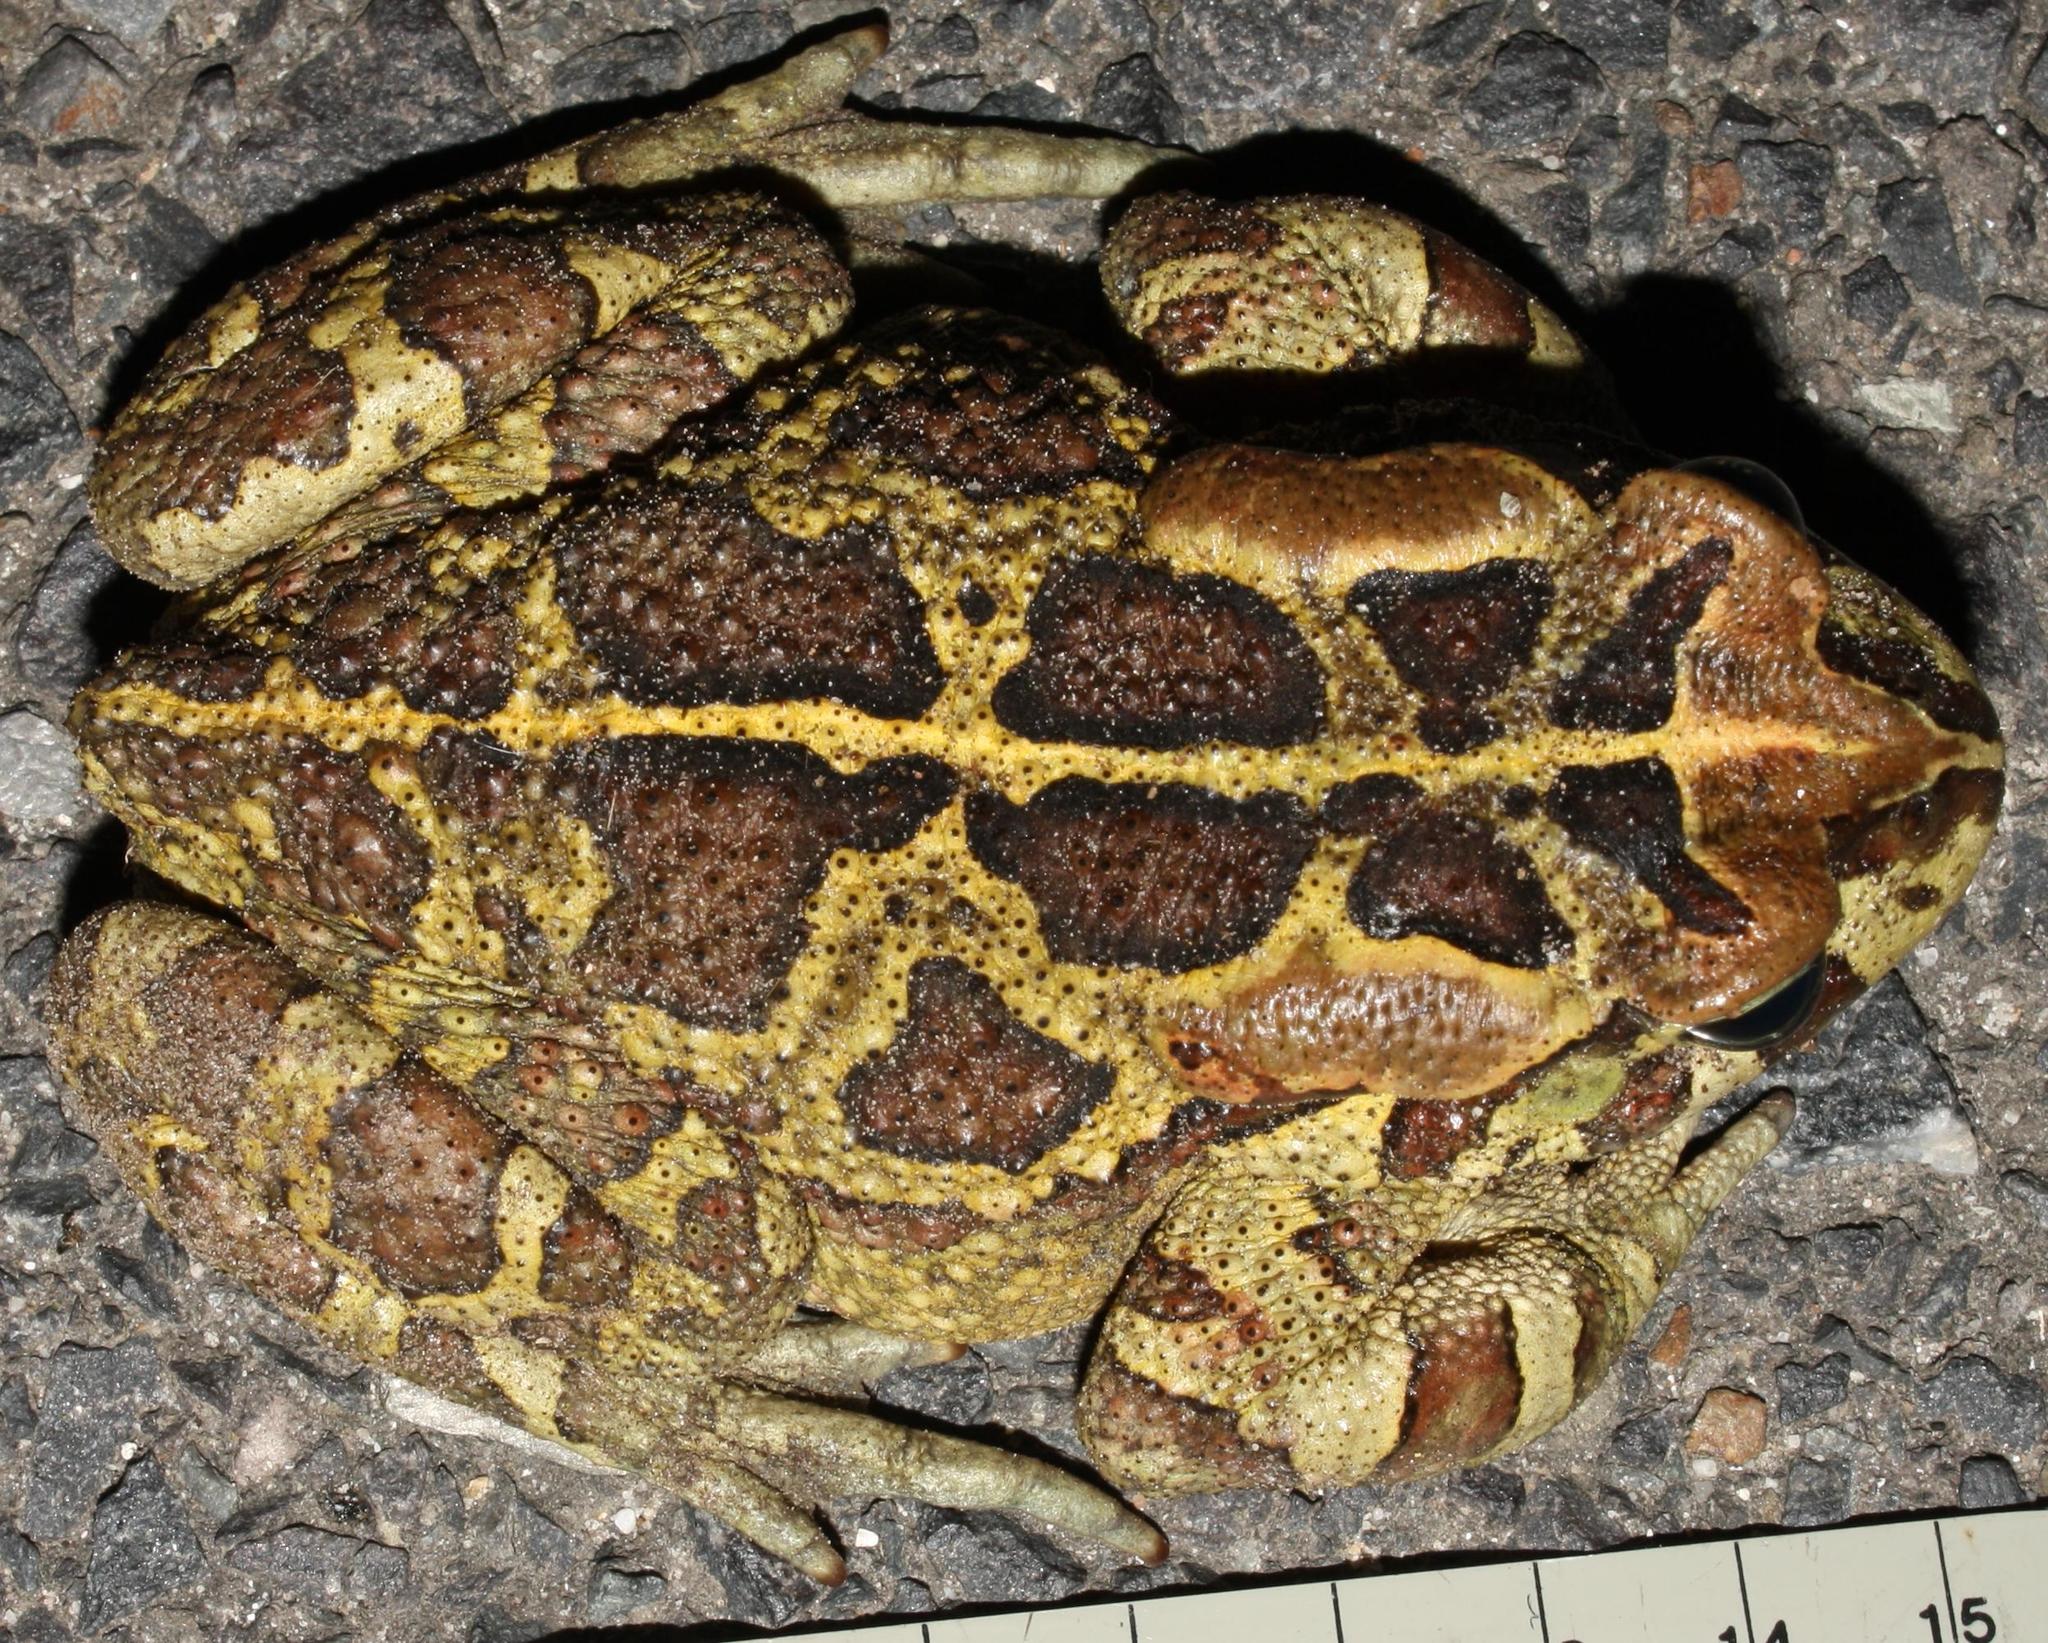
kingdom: Animalia
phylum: Chordata
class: Amphibia
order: Anura
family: Bufonidae
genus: Sclerophrys
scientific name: Sclerophrys pantherina
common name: Panther toad
